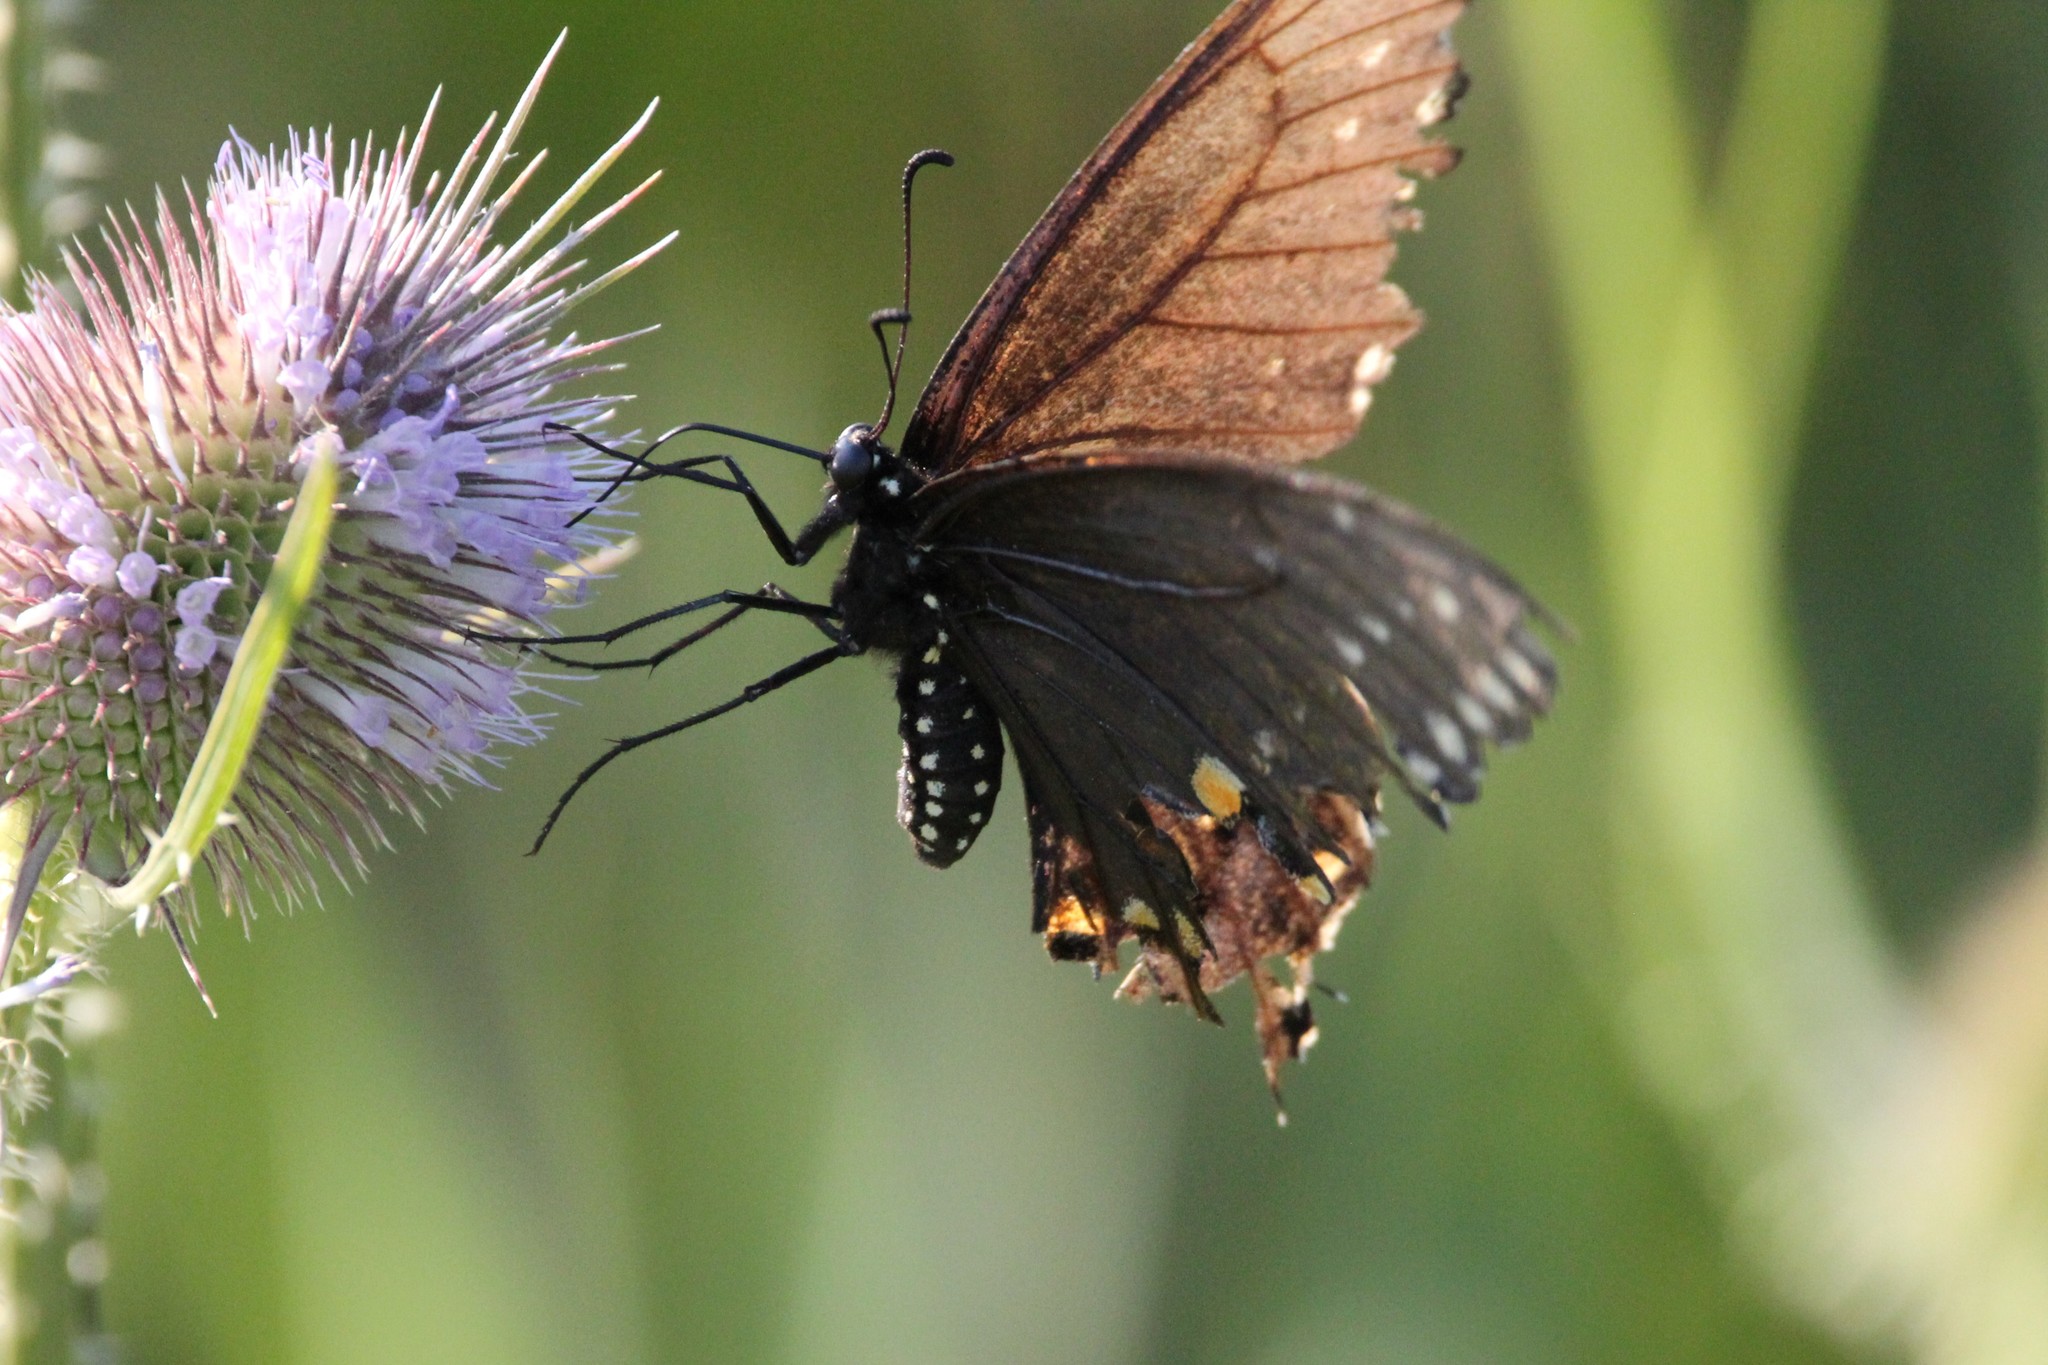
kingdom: Animalia
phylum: Arthropoda
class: Insecta
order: Lepidoptera
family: Papilionidae
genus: Papilio
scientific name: Papilio polyxenes
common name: Black swallowtail
